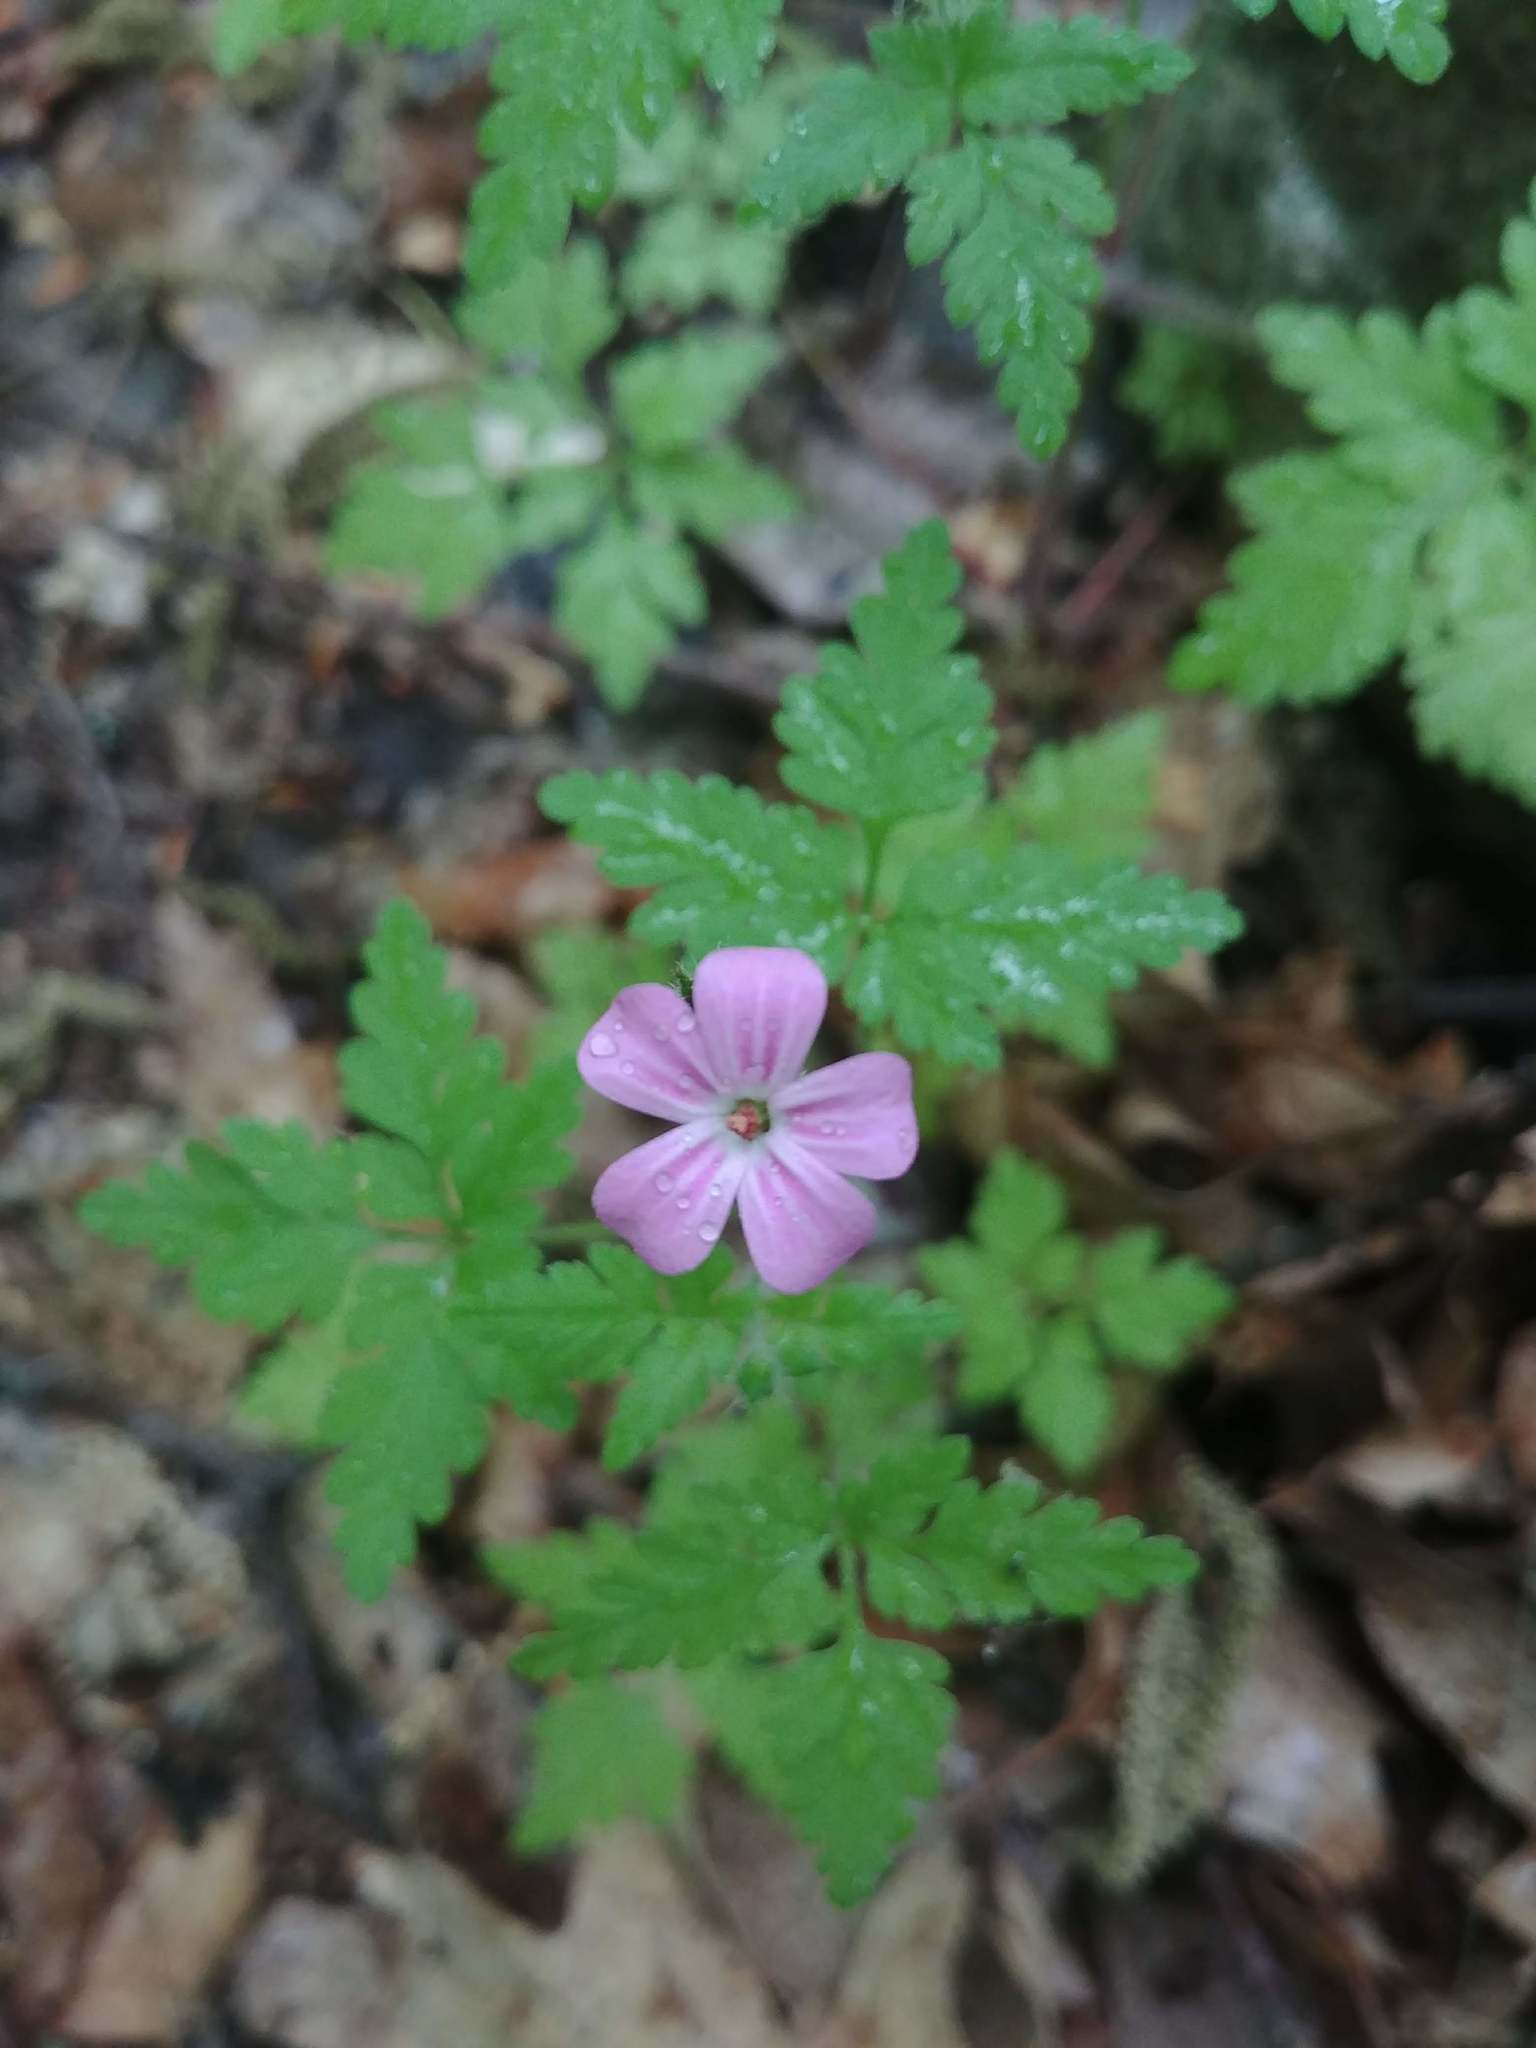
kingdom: Plantae
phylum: Tracheophyta
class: Magnoliopsida
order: Geraniales
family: Geraniaceae
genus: Geranium
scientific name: Geranium robertianum
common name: Herb-robert
